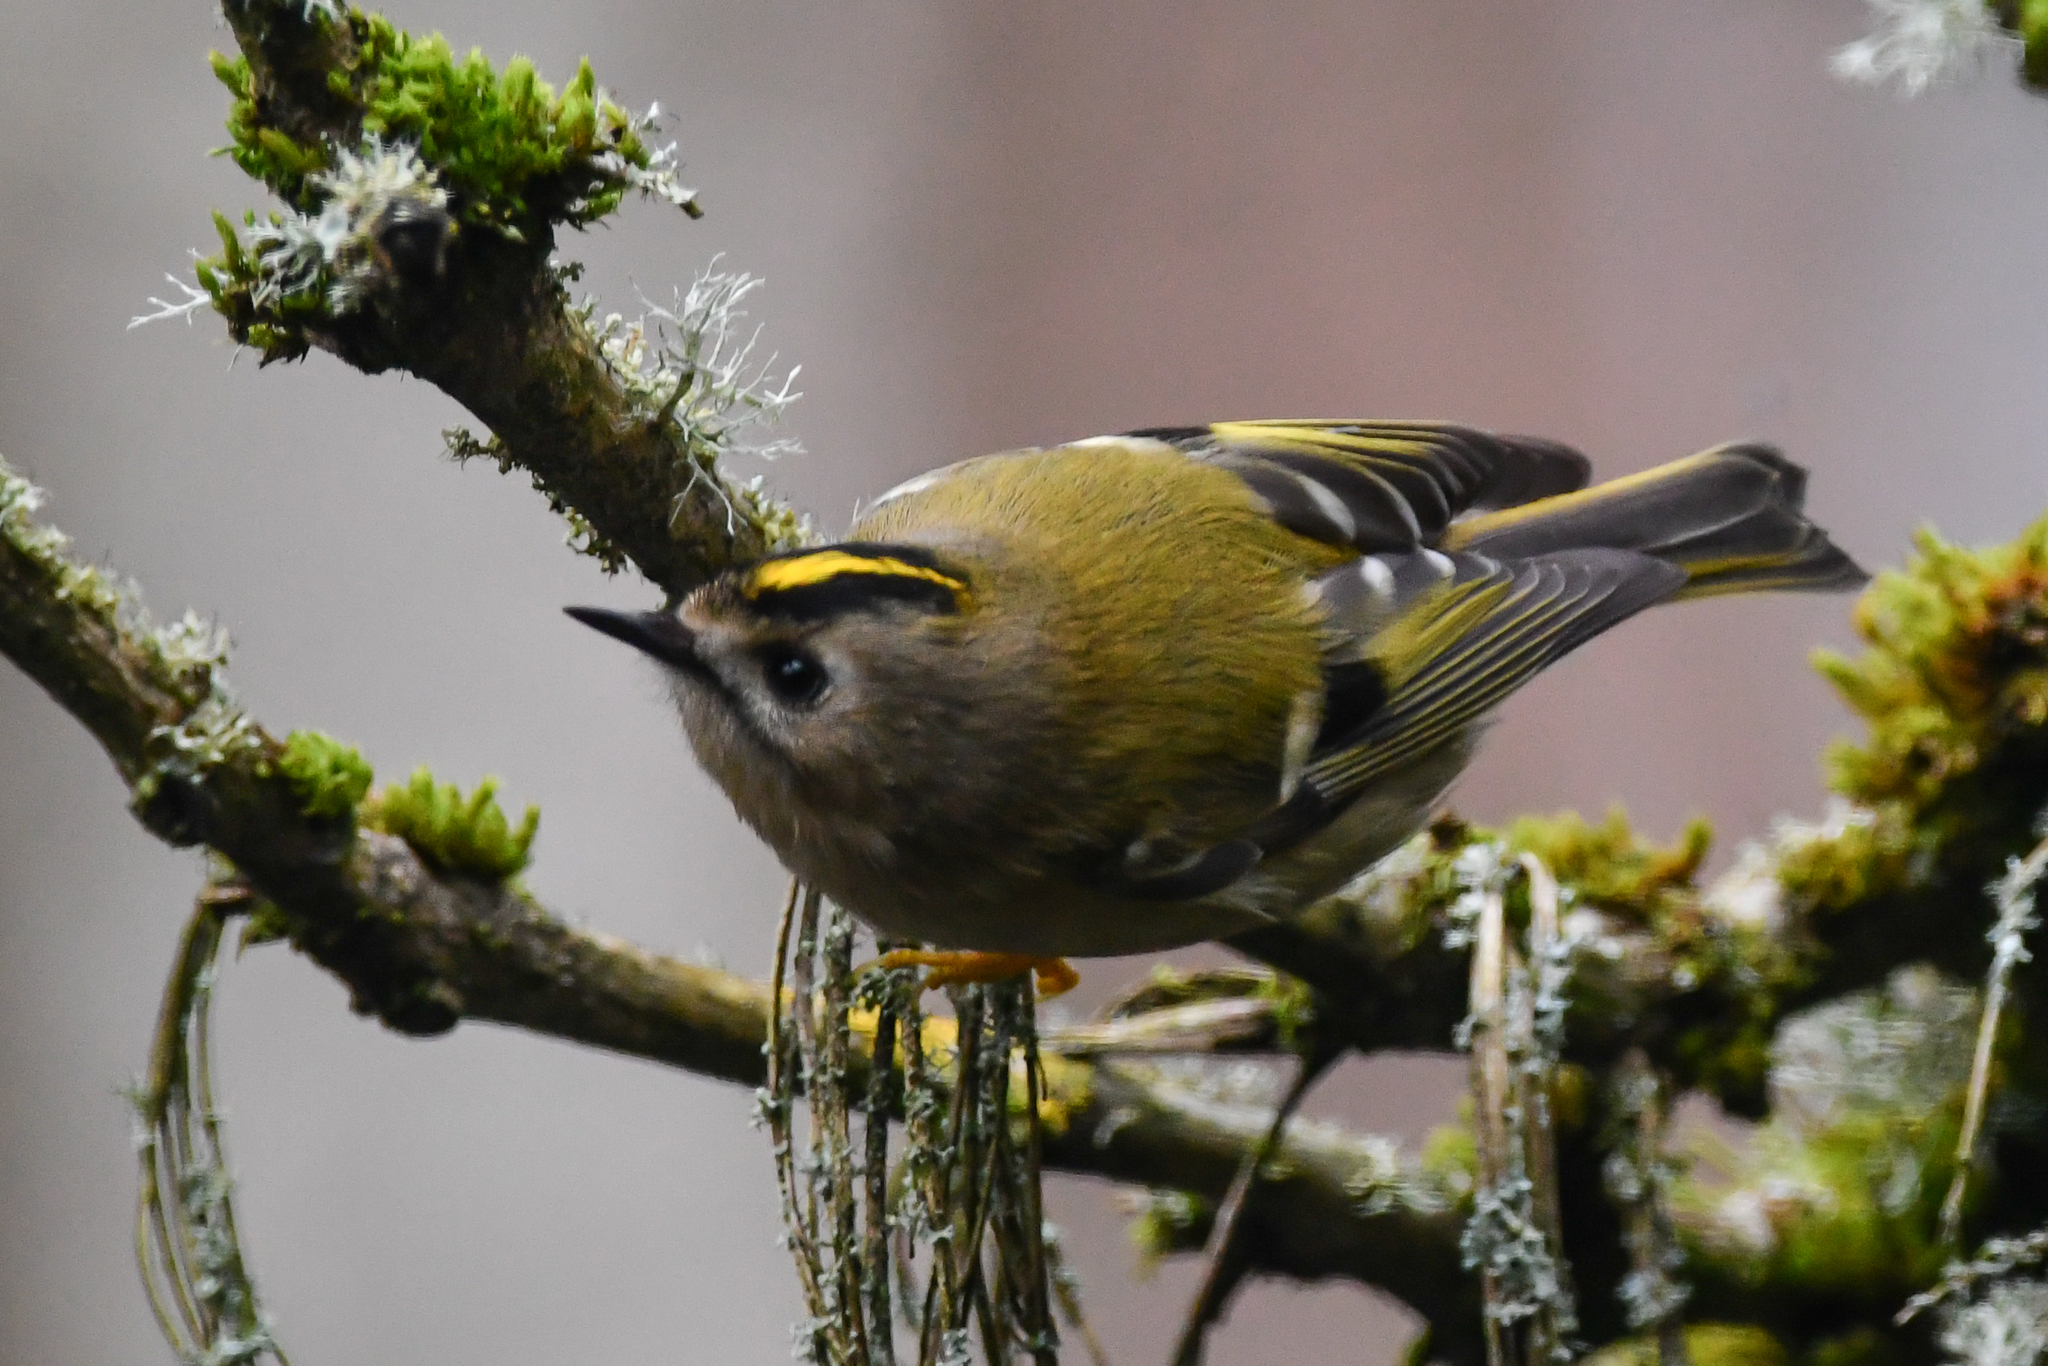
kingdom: Animalia
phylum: Chordata
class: Aves
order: Passeriformes
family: Regulidae
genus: Regulus
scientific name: Regulus regulus
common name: Goldcrest
